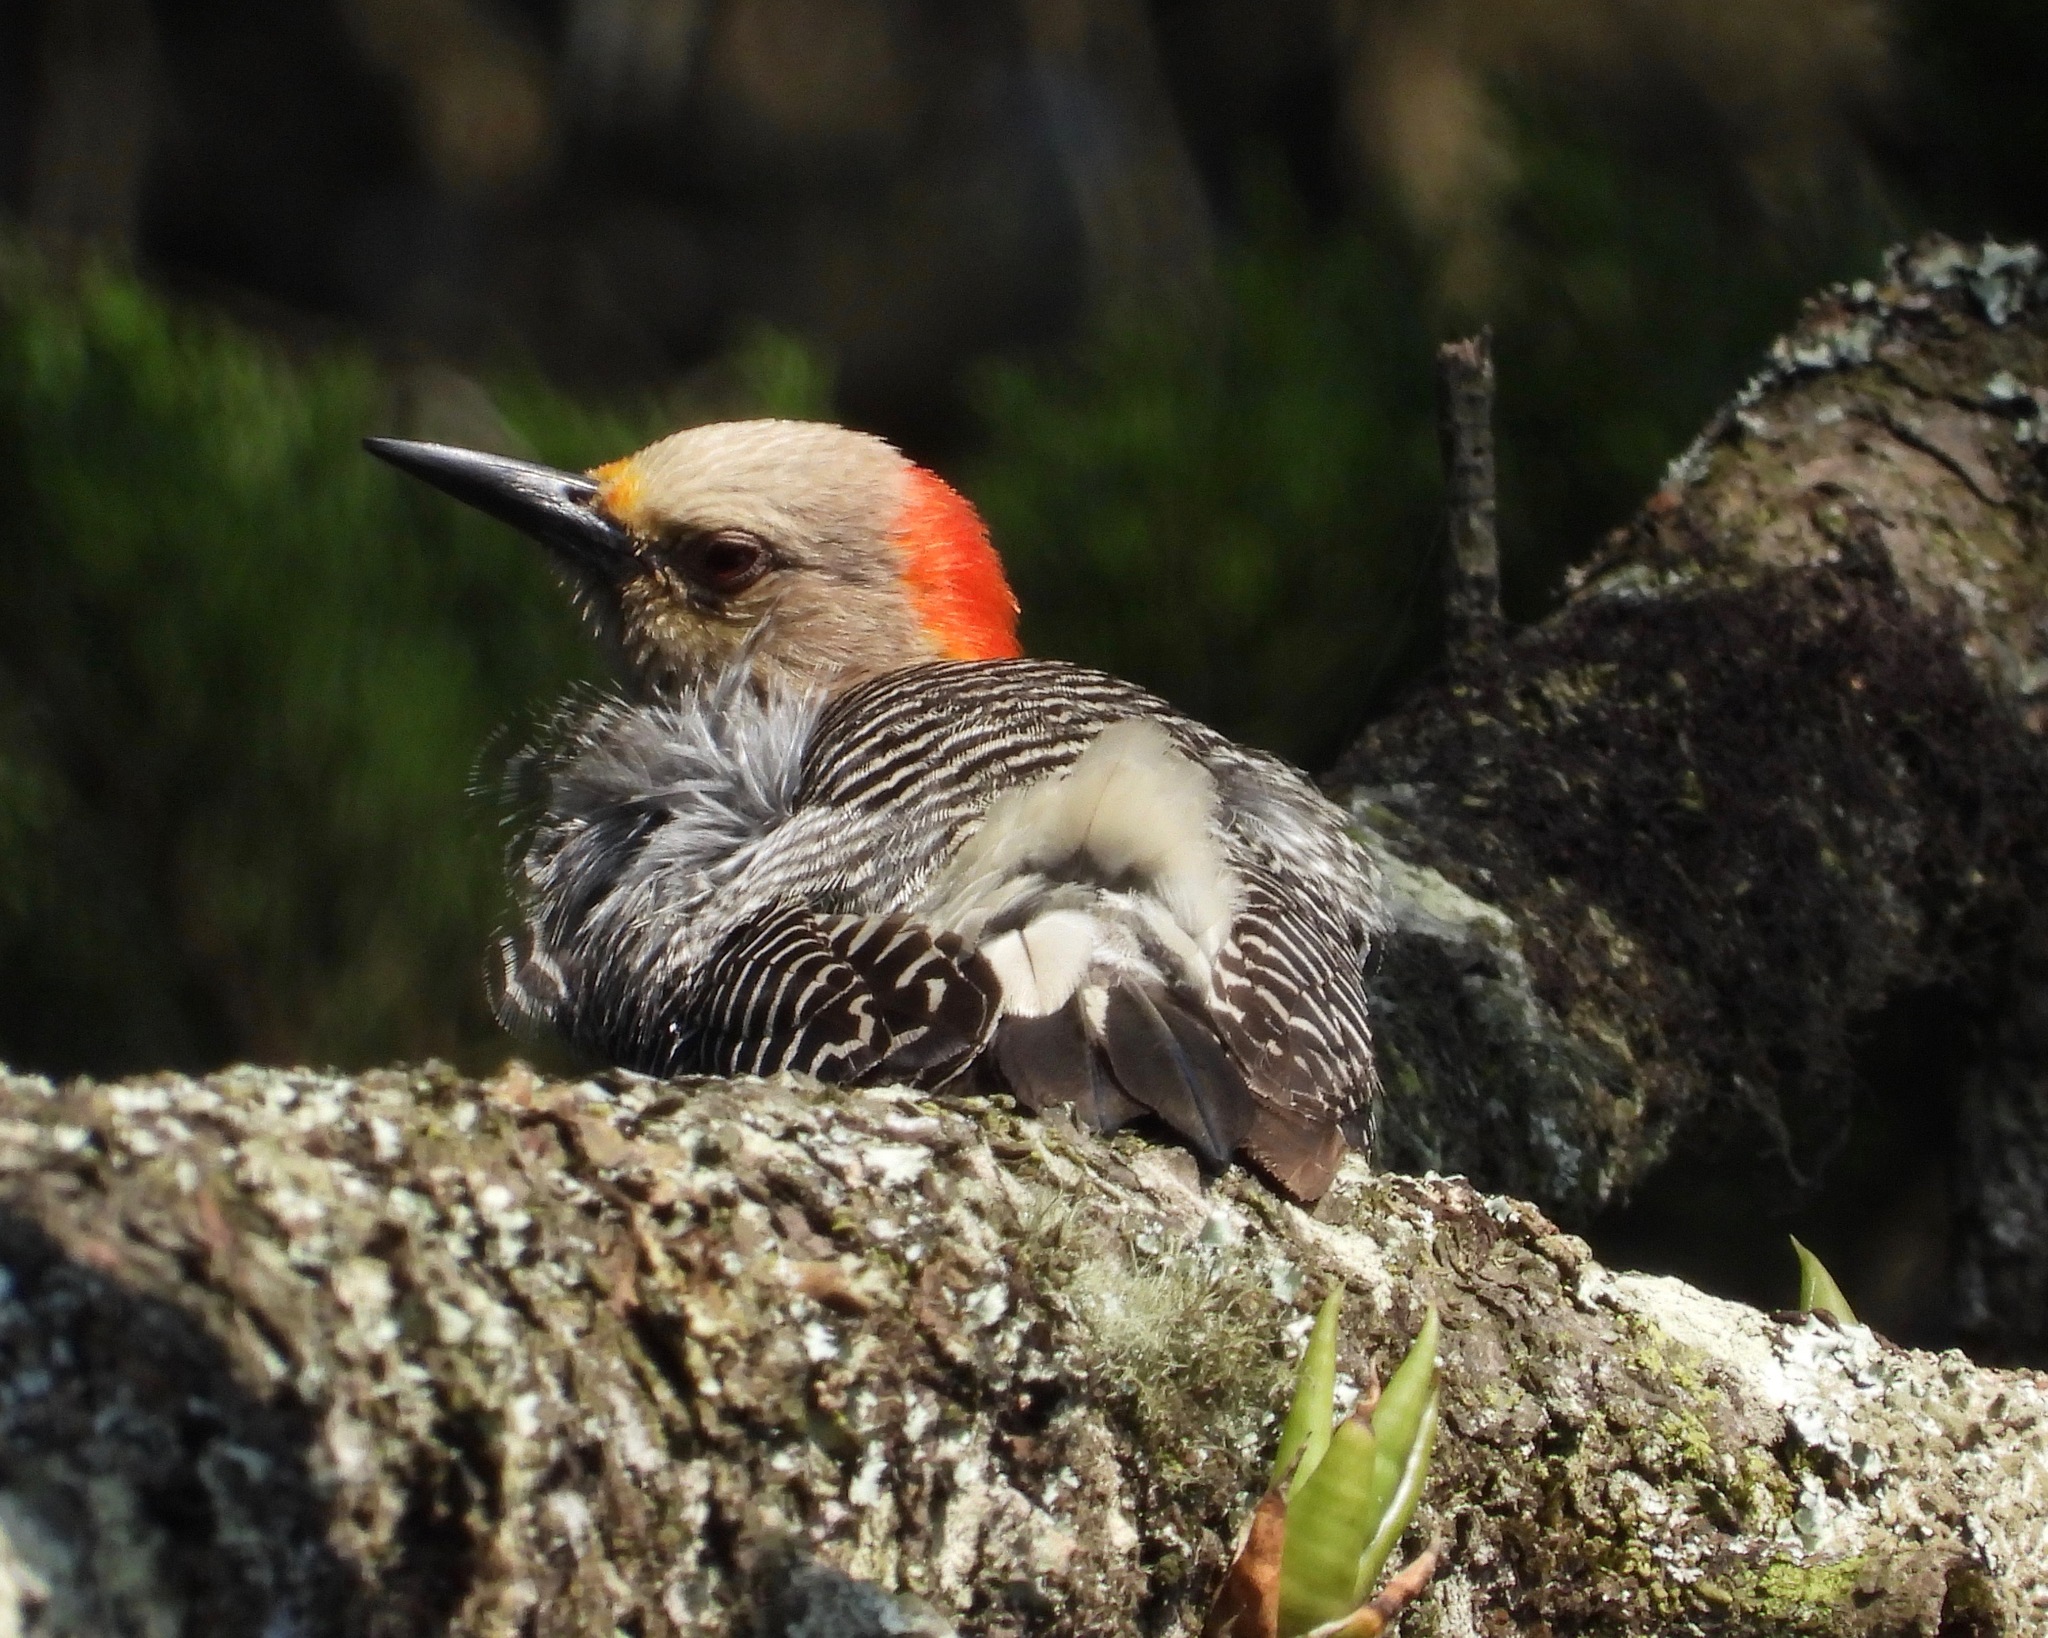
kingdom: Animalia
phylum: Chordata
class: Aves
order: Piciformes
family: Picidae
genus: Melanerpes
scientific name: Melanerpes santacruzi
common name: Velasquez's woodpecker
